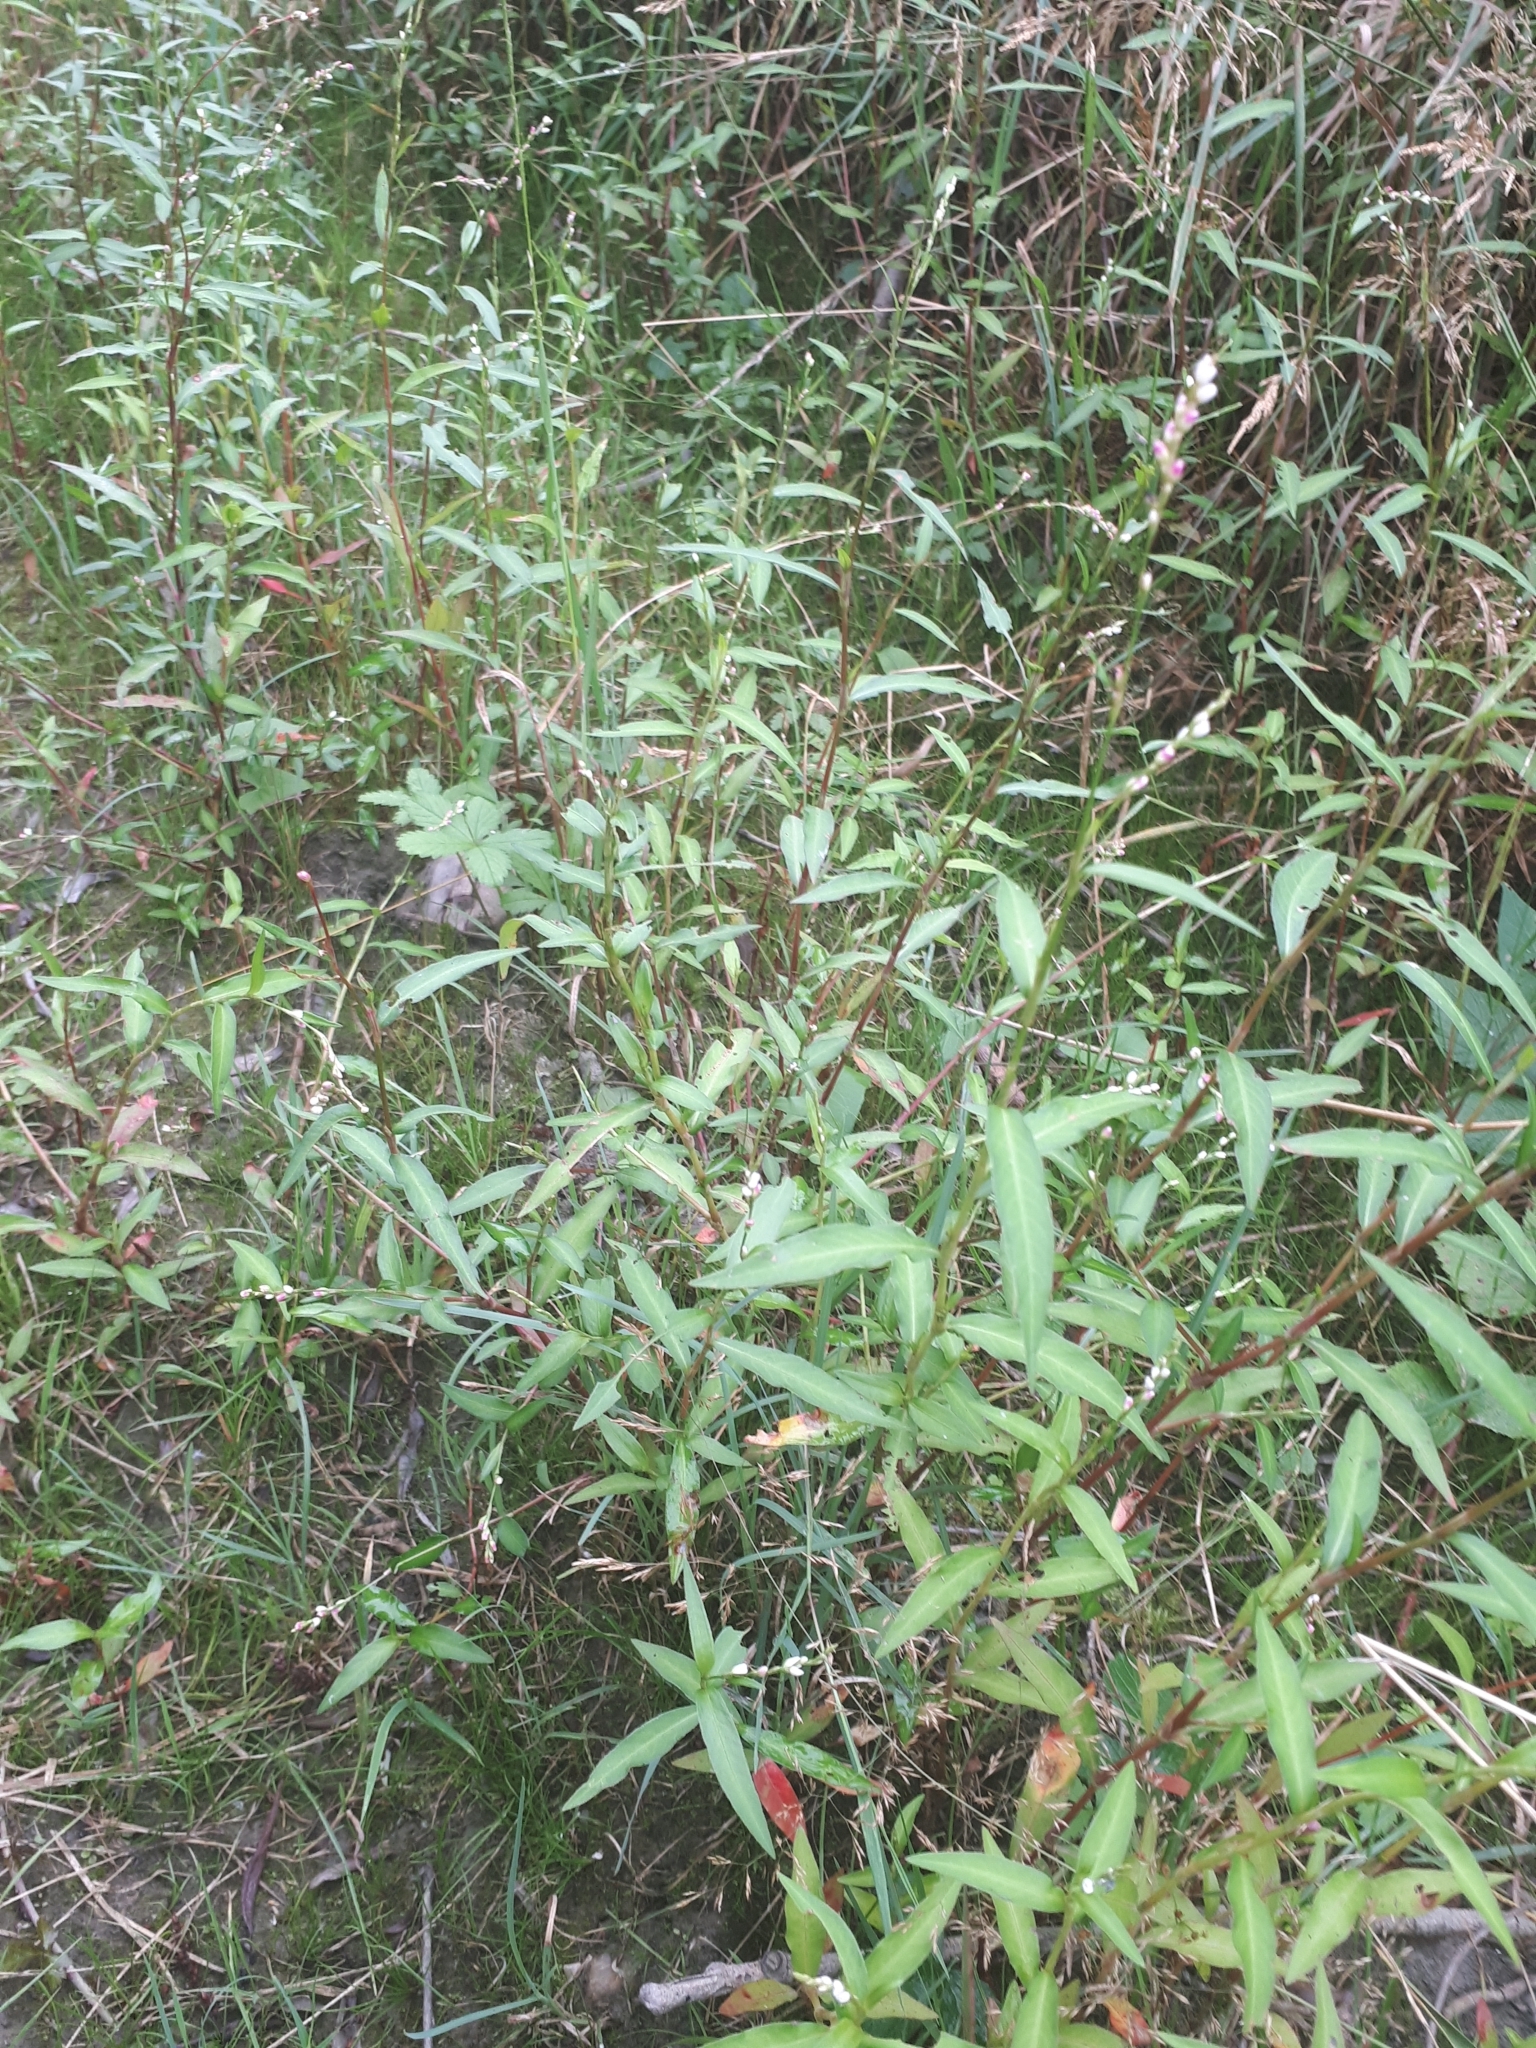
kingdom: Plantae
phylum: Tracheophyta
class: Magnoliopsida
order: Caryophyllales
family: Polygonaceae
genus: Persicaria
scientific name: Persicaria minor
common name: Small water-pepper
